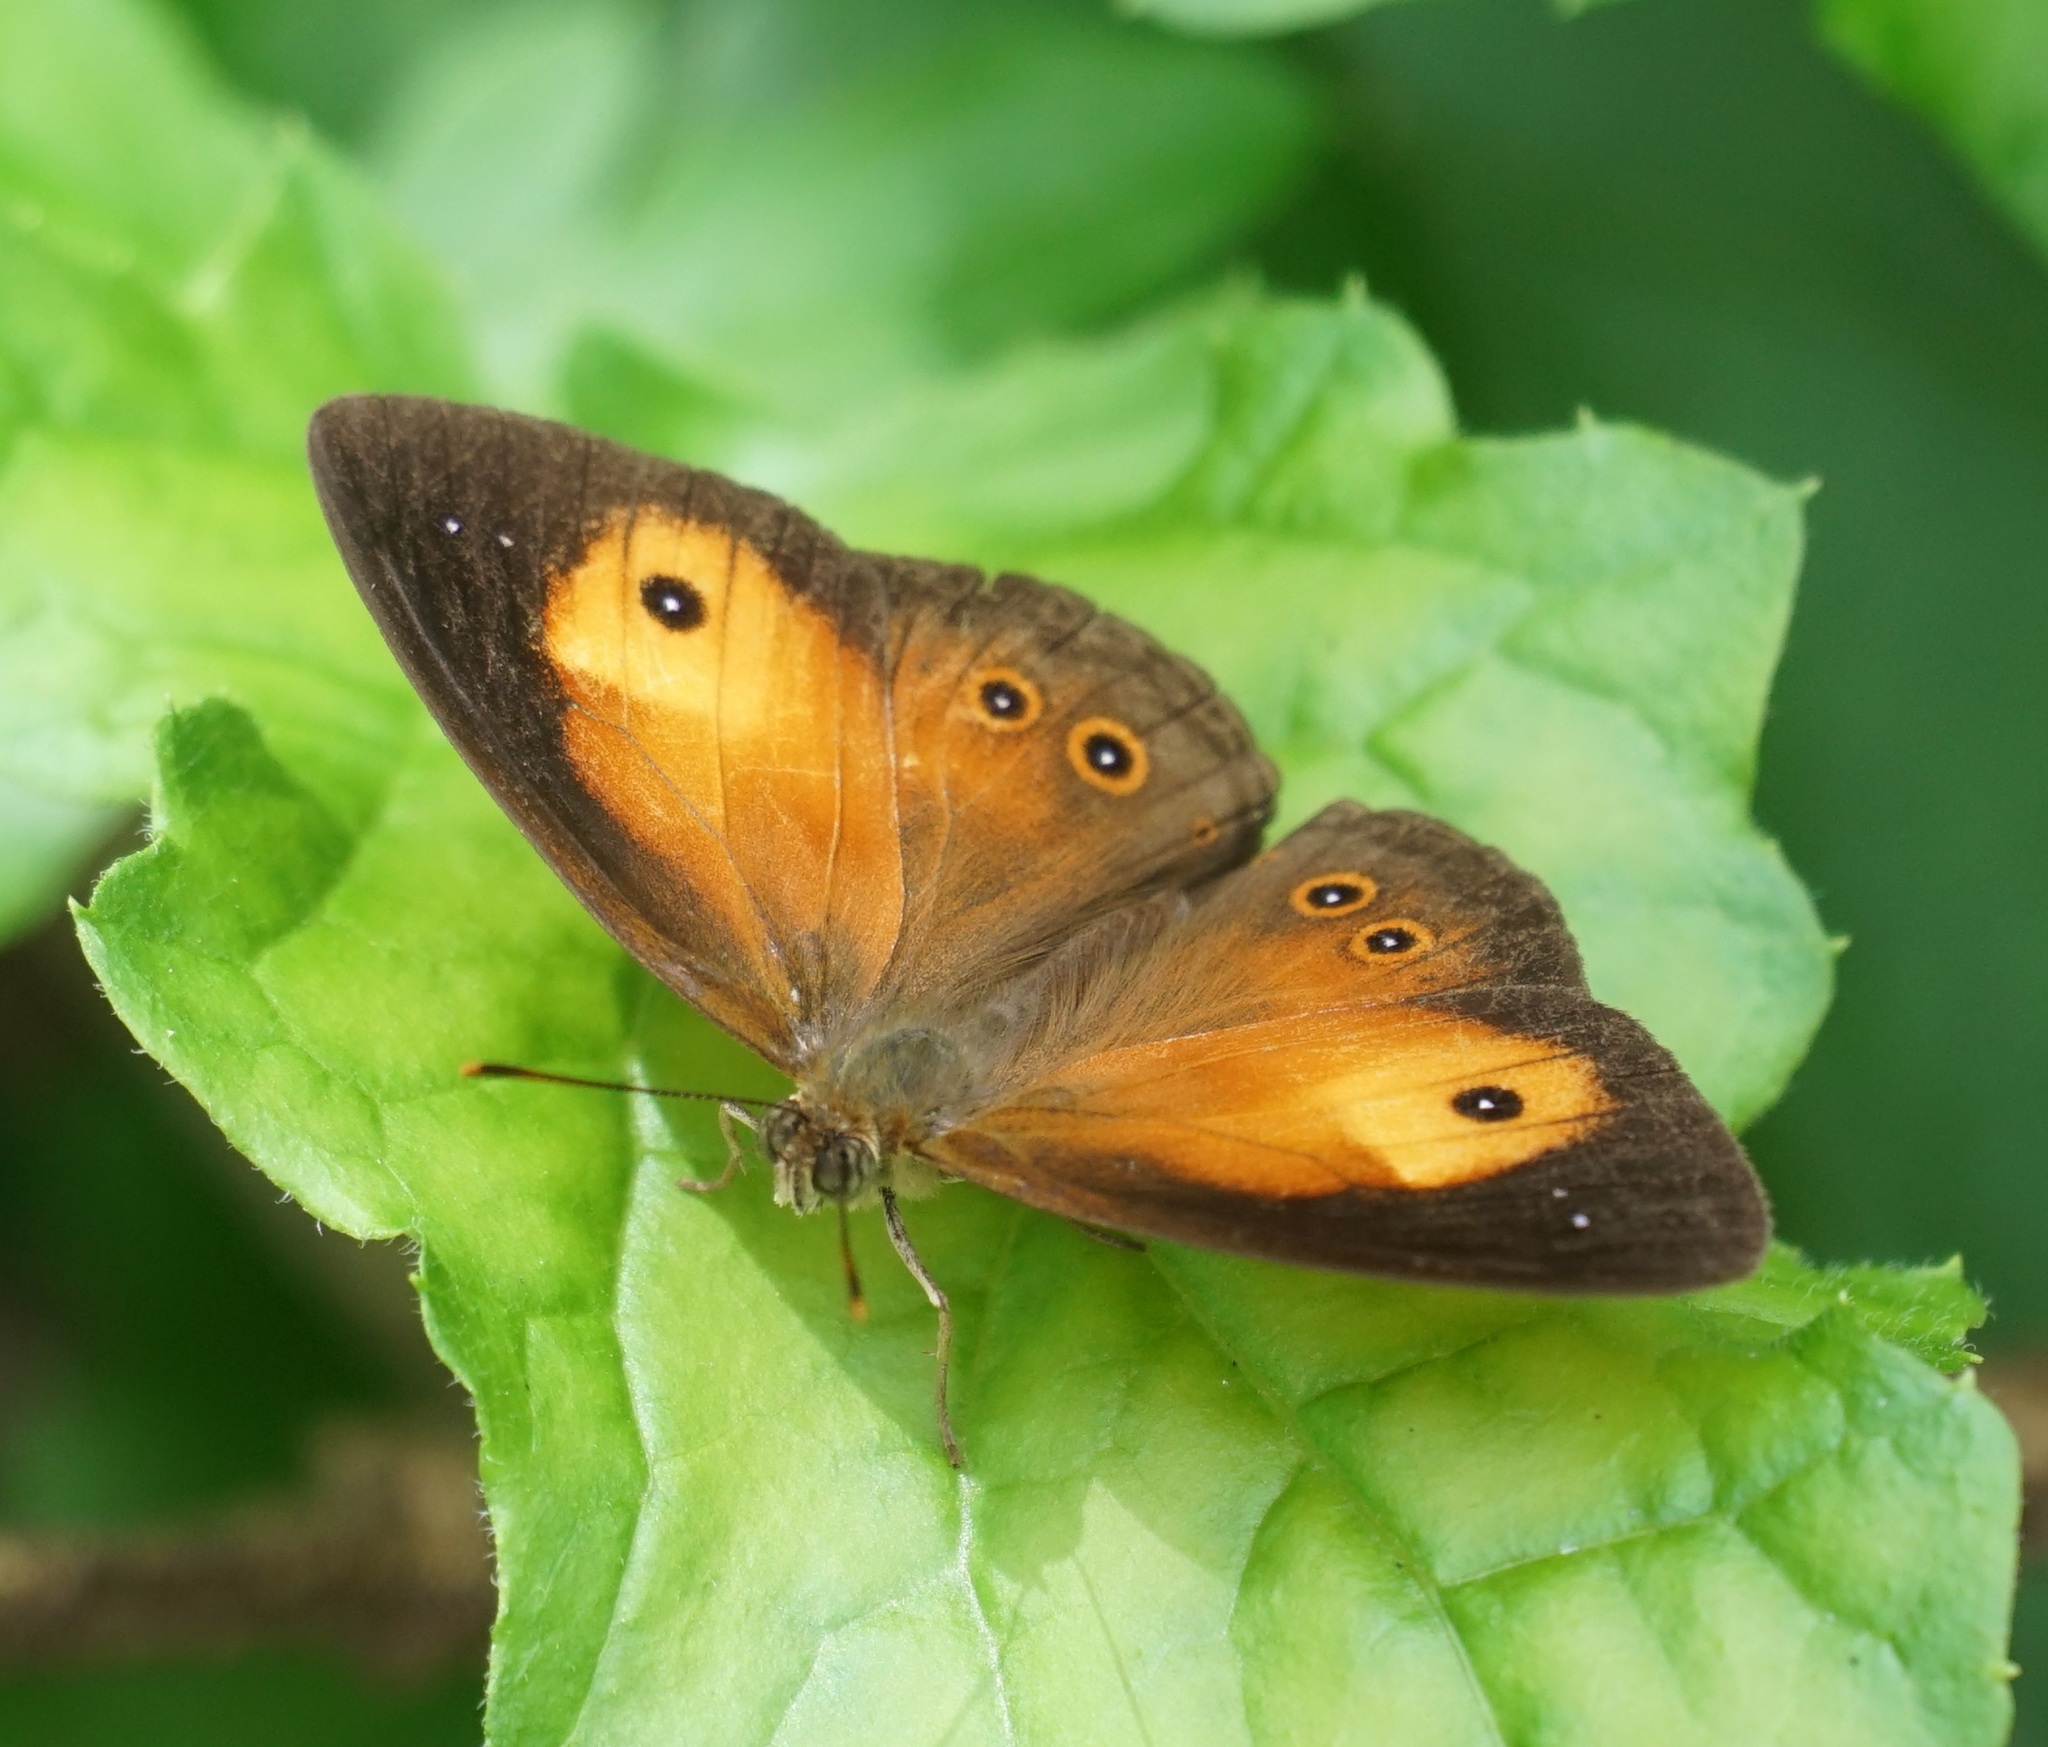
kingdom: Animalia
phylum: Arthropoda
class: Insecta
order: Lepidoptera
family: Nymphalidae
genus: Mycalesis
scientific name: Mycalesis terminus
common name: Orange bushbrown
